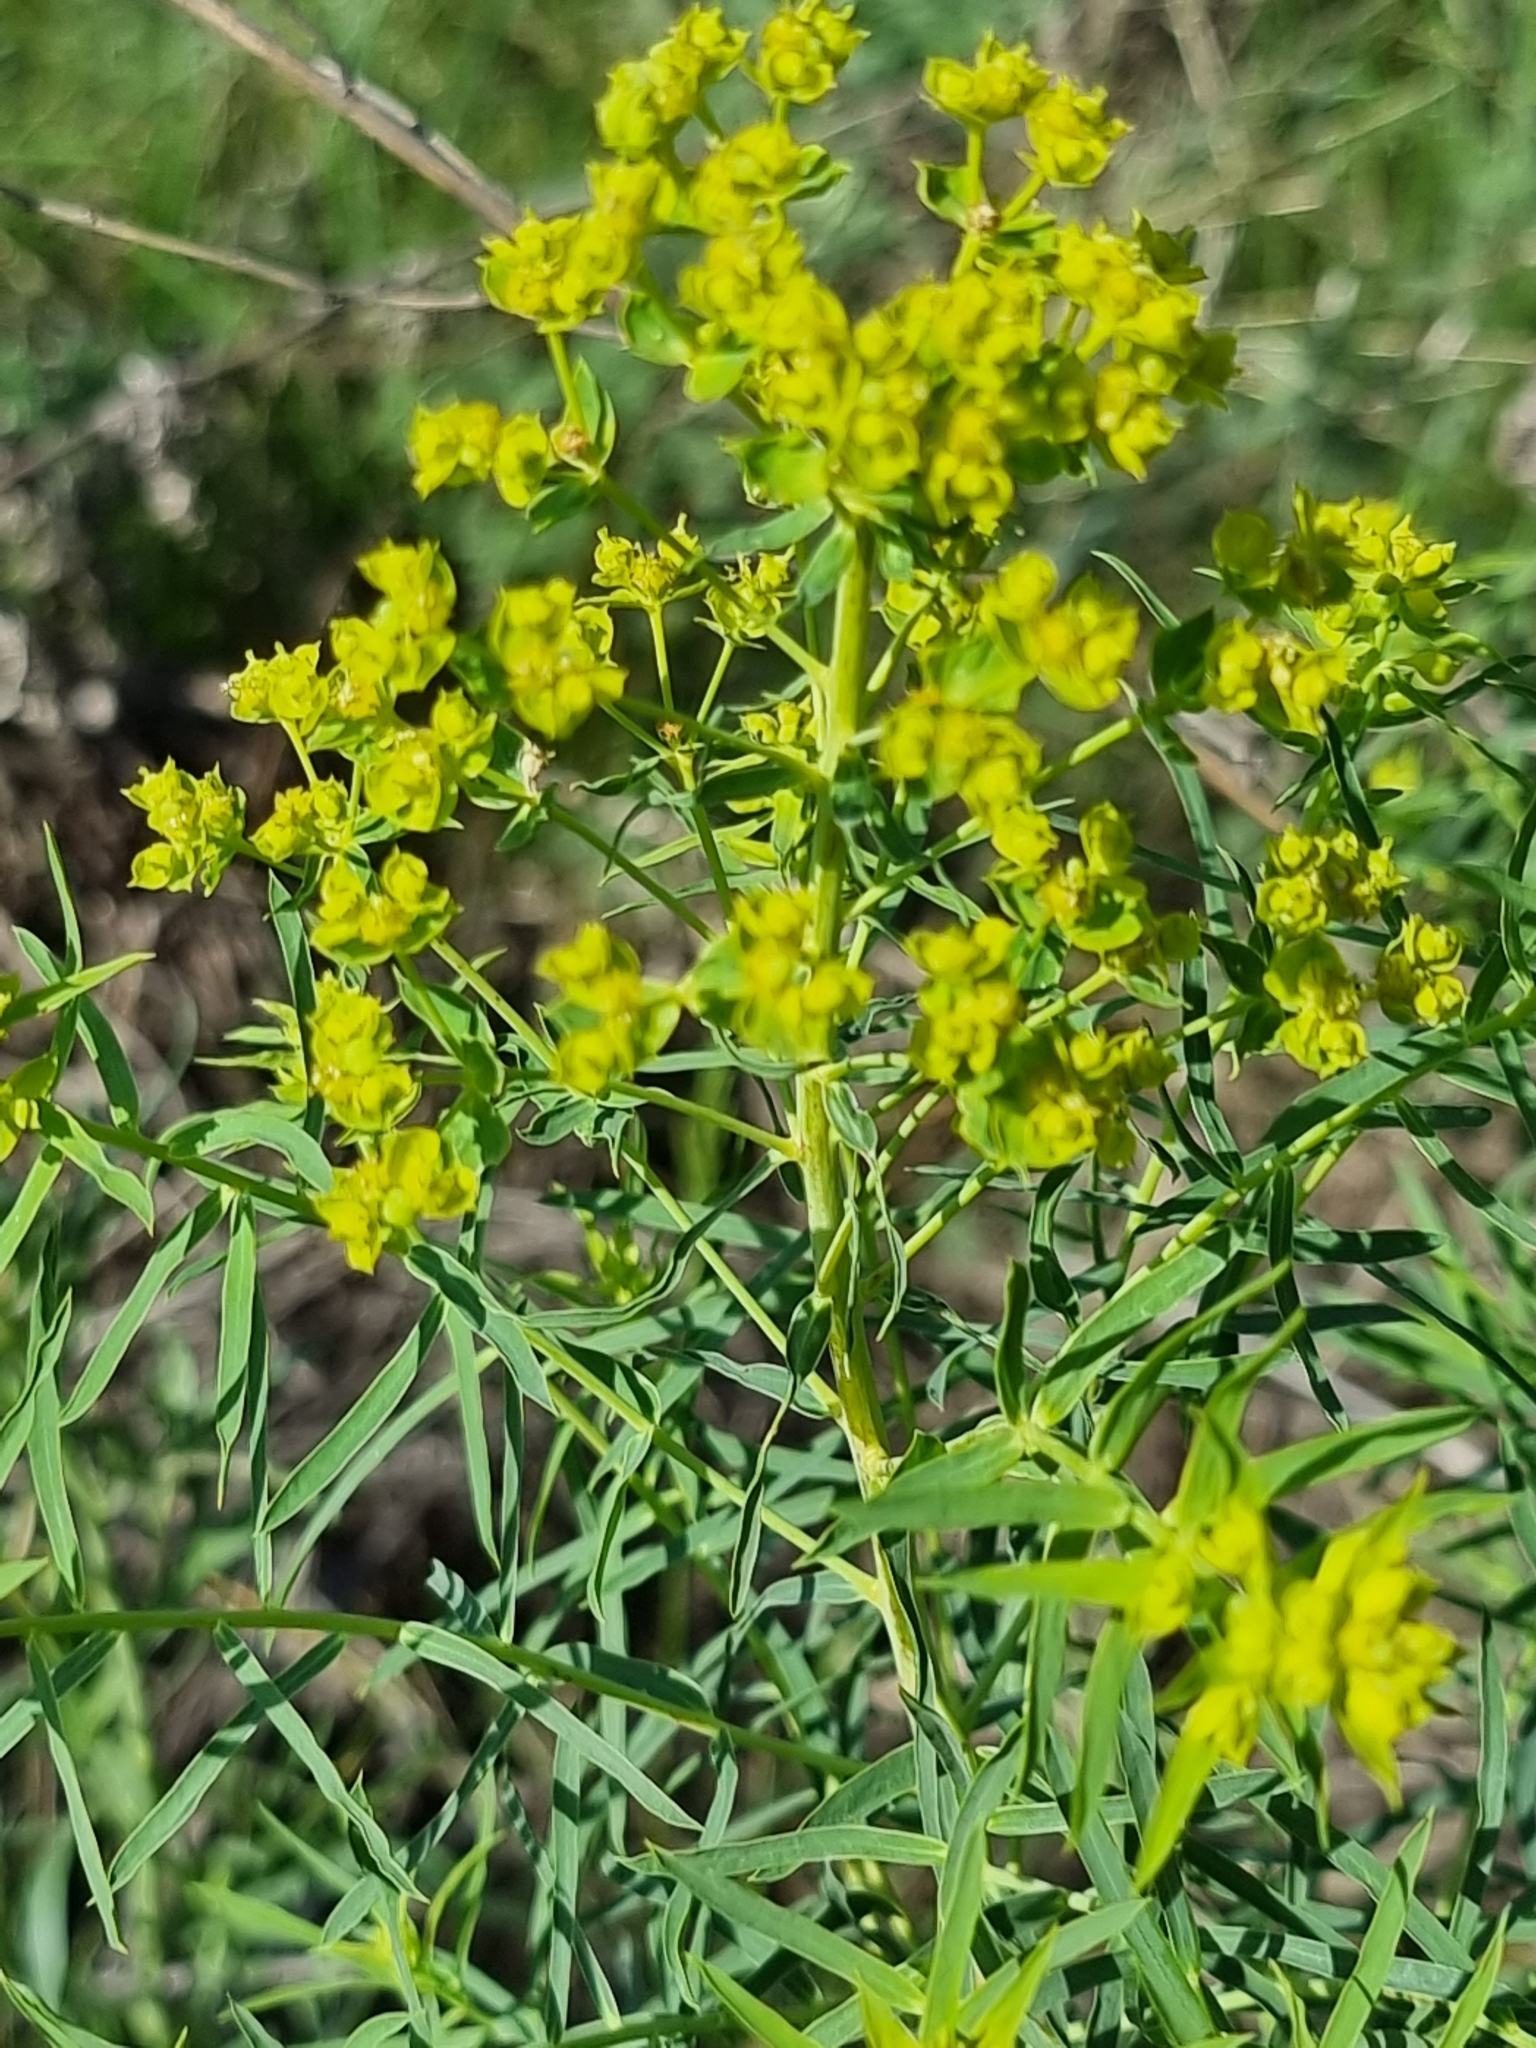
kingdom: Plantae
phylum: Tracheophyta
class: Magnoliopsida
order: Malpighiales
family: Euphorbiaceae
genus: Euphorbia
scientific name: Euphorbia virgata
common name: Leafy spurge
